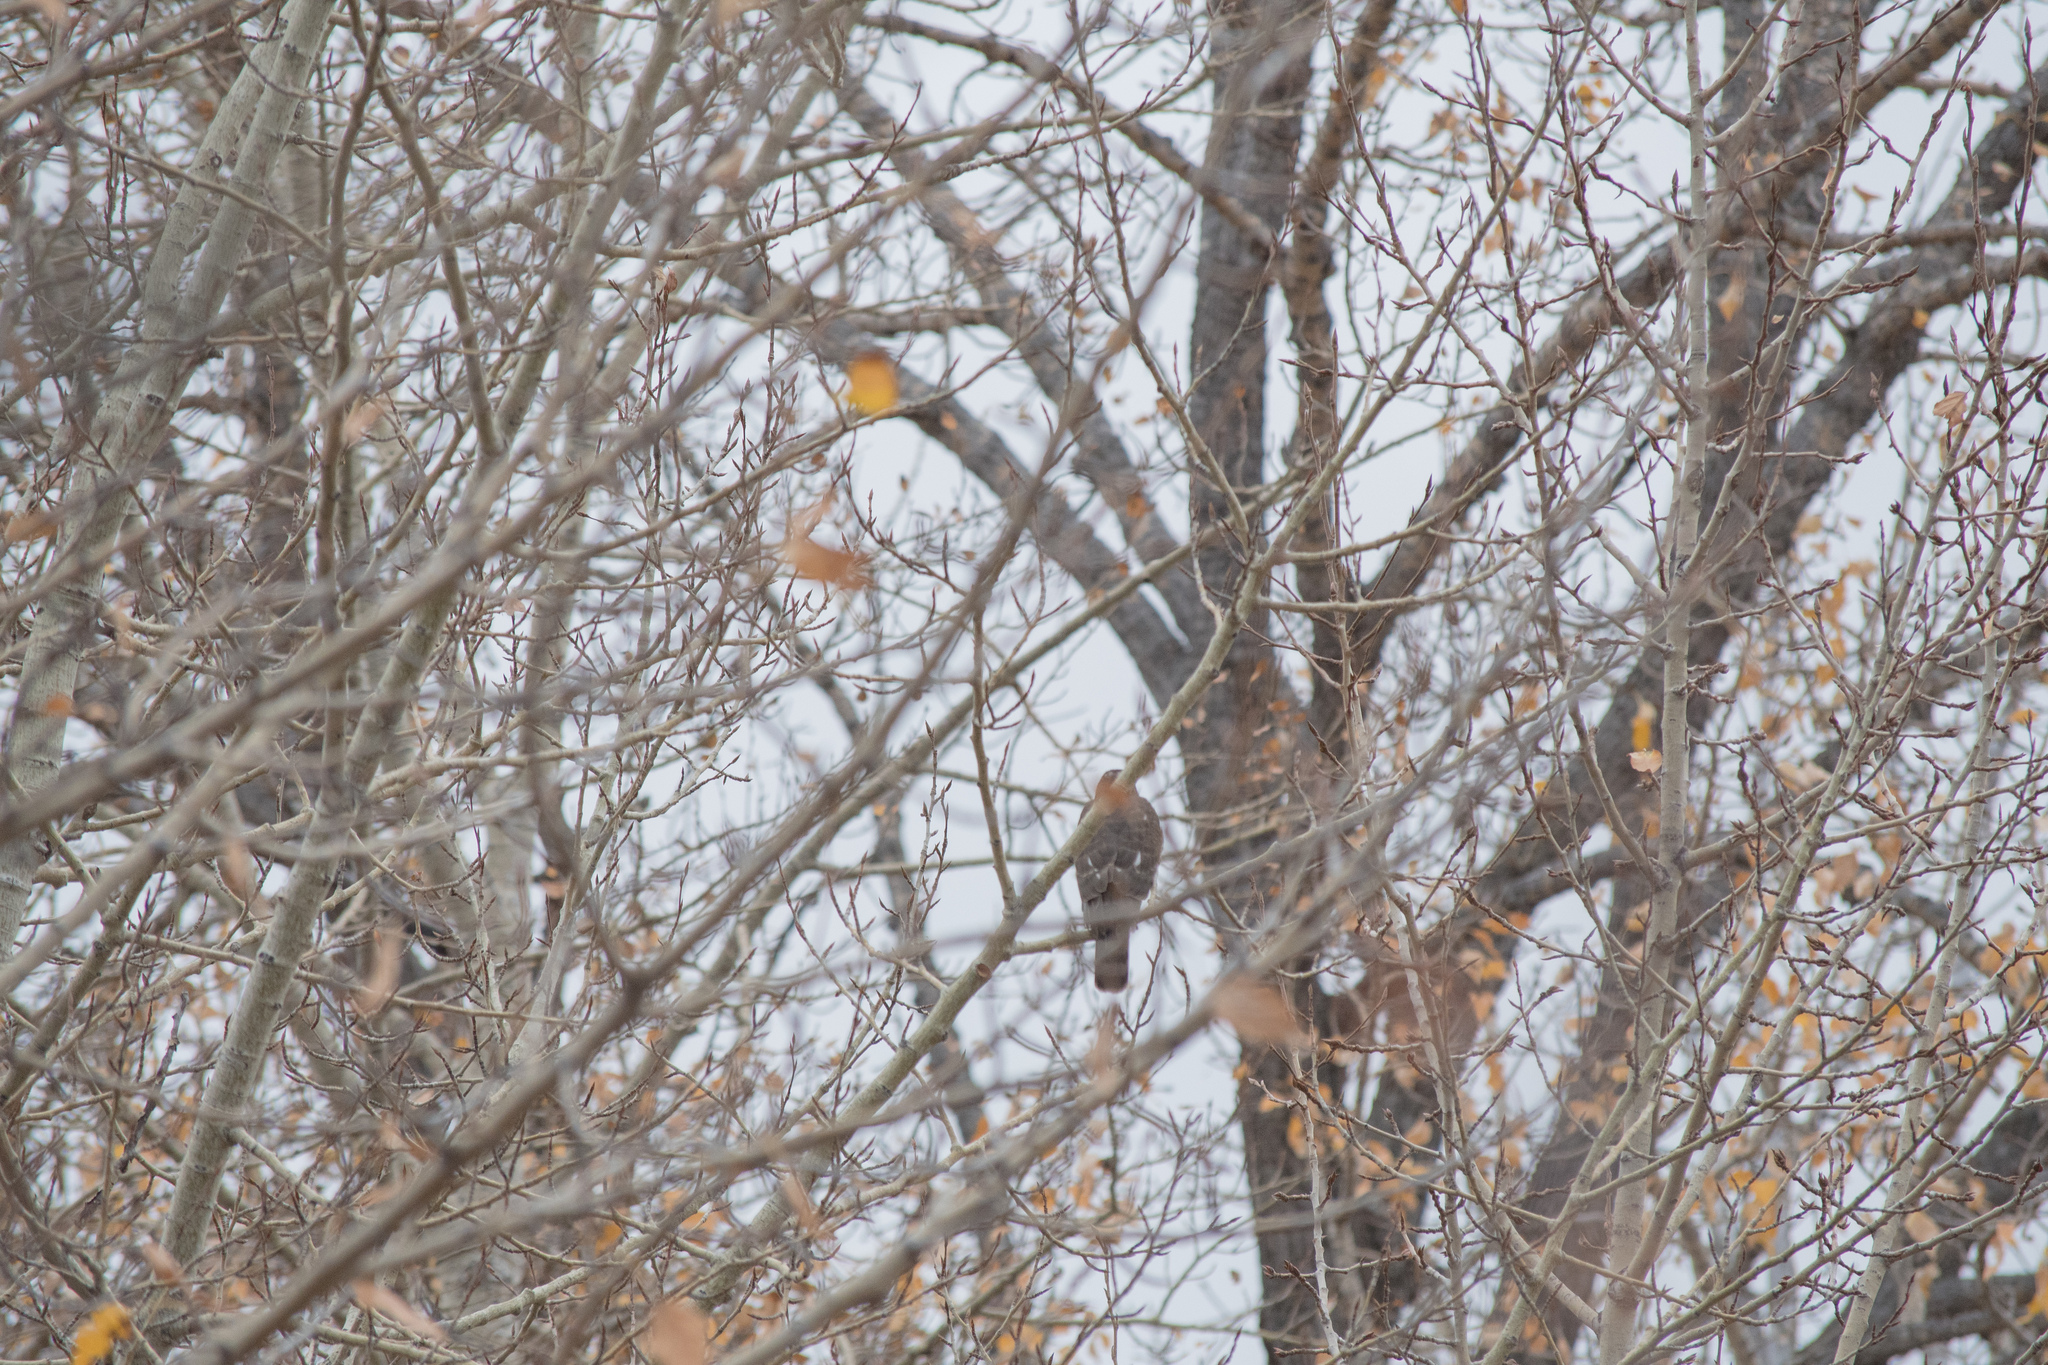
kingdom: Animalia
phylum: Chordata
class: Aves
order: Accipitriformes
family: Accipitridae
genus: Accipiter
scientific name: Accipiter striatus
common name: Sharp-shinned hawk
